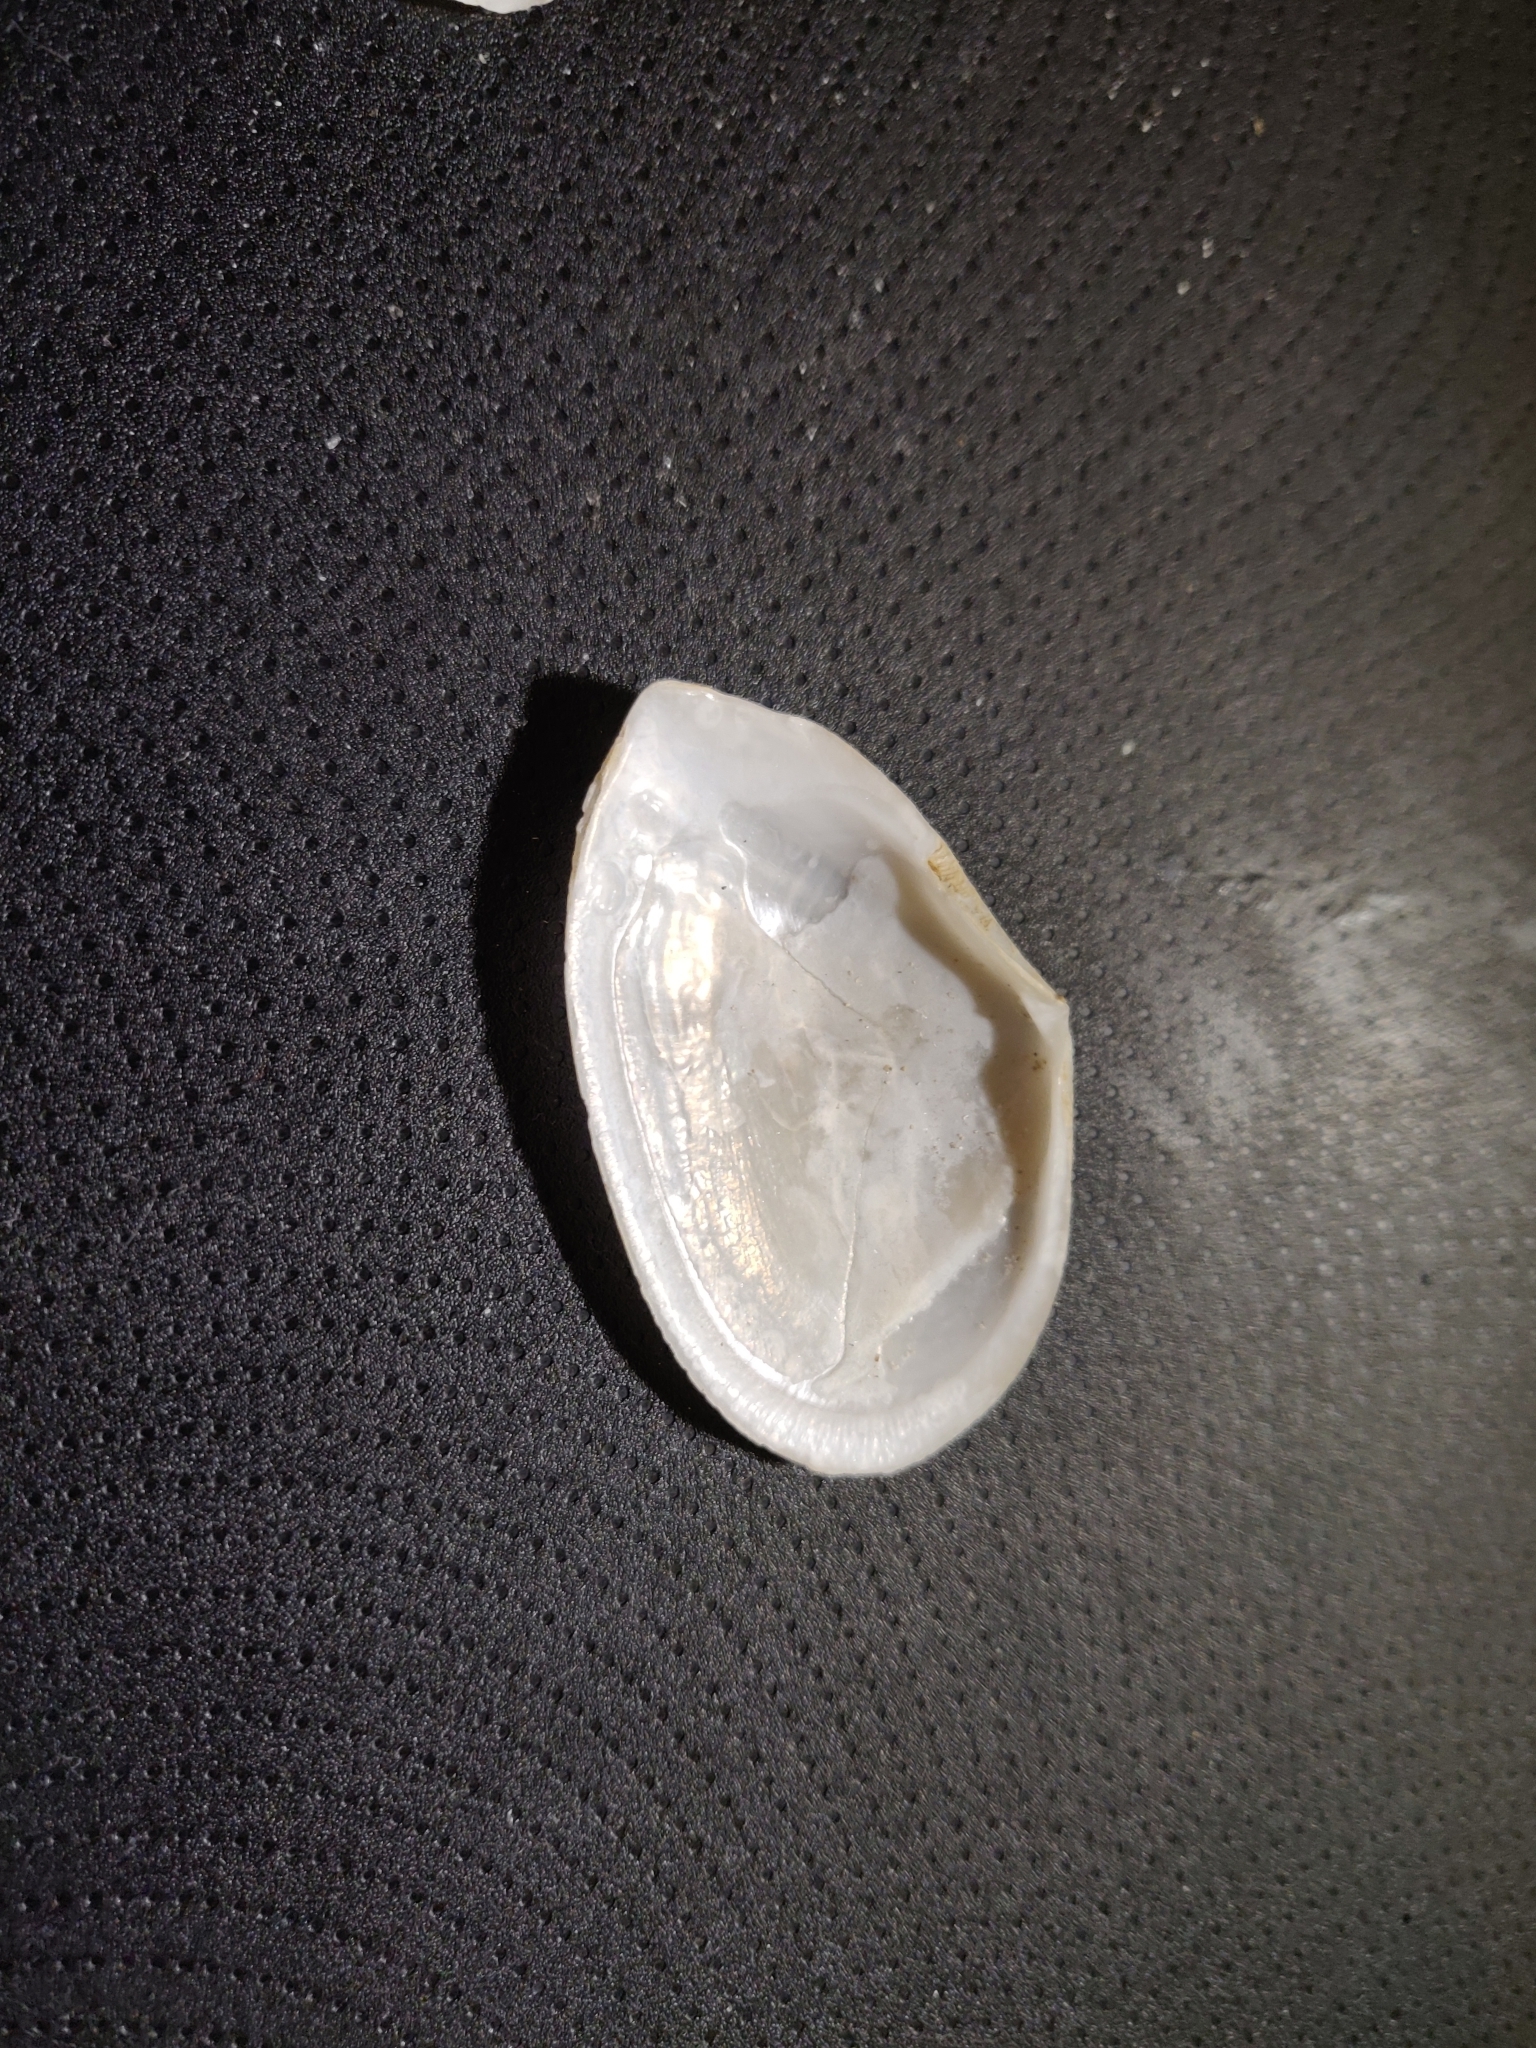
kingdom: Animalia
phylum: Mollusca
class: Bivalvia
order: Cardiida
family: Tellinidae
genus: Peronaea
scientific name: Peronaea planata
